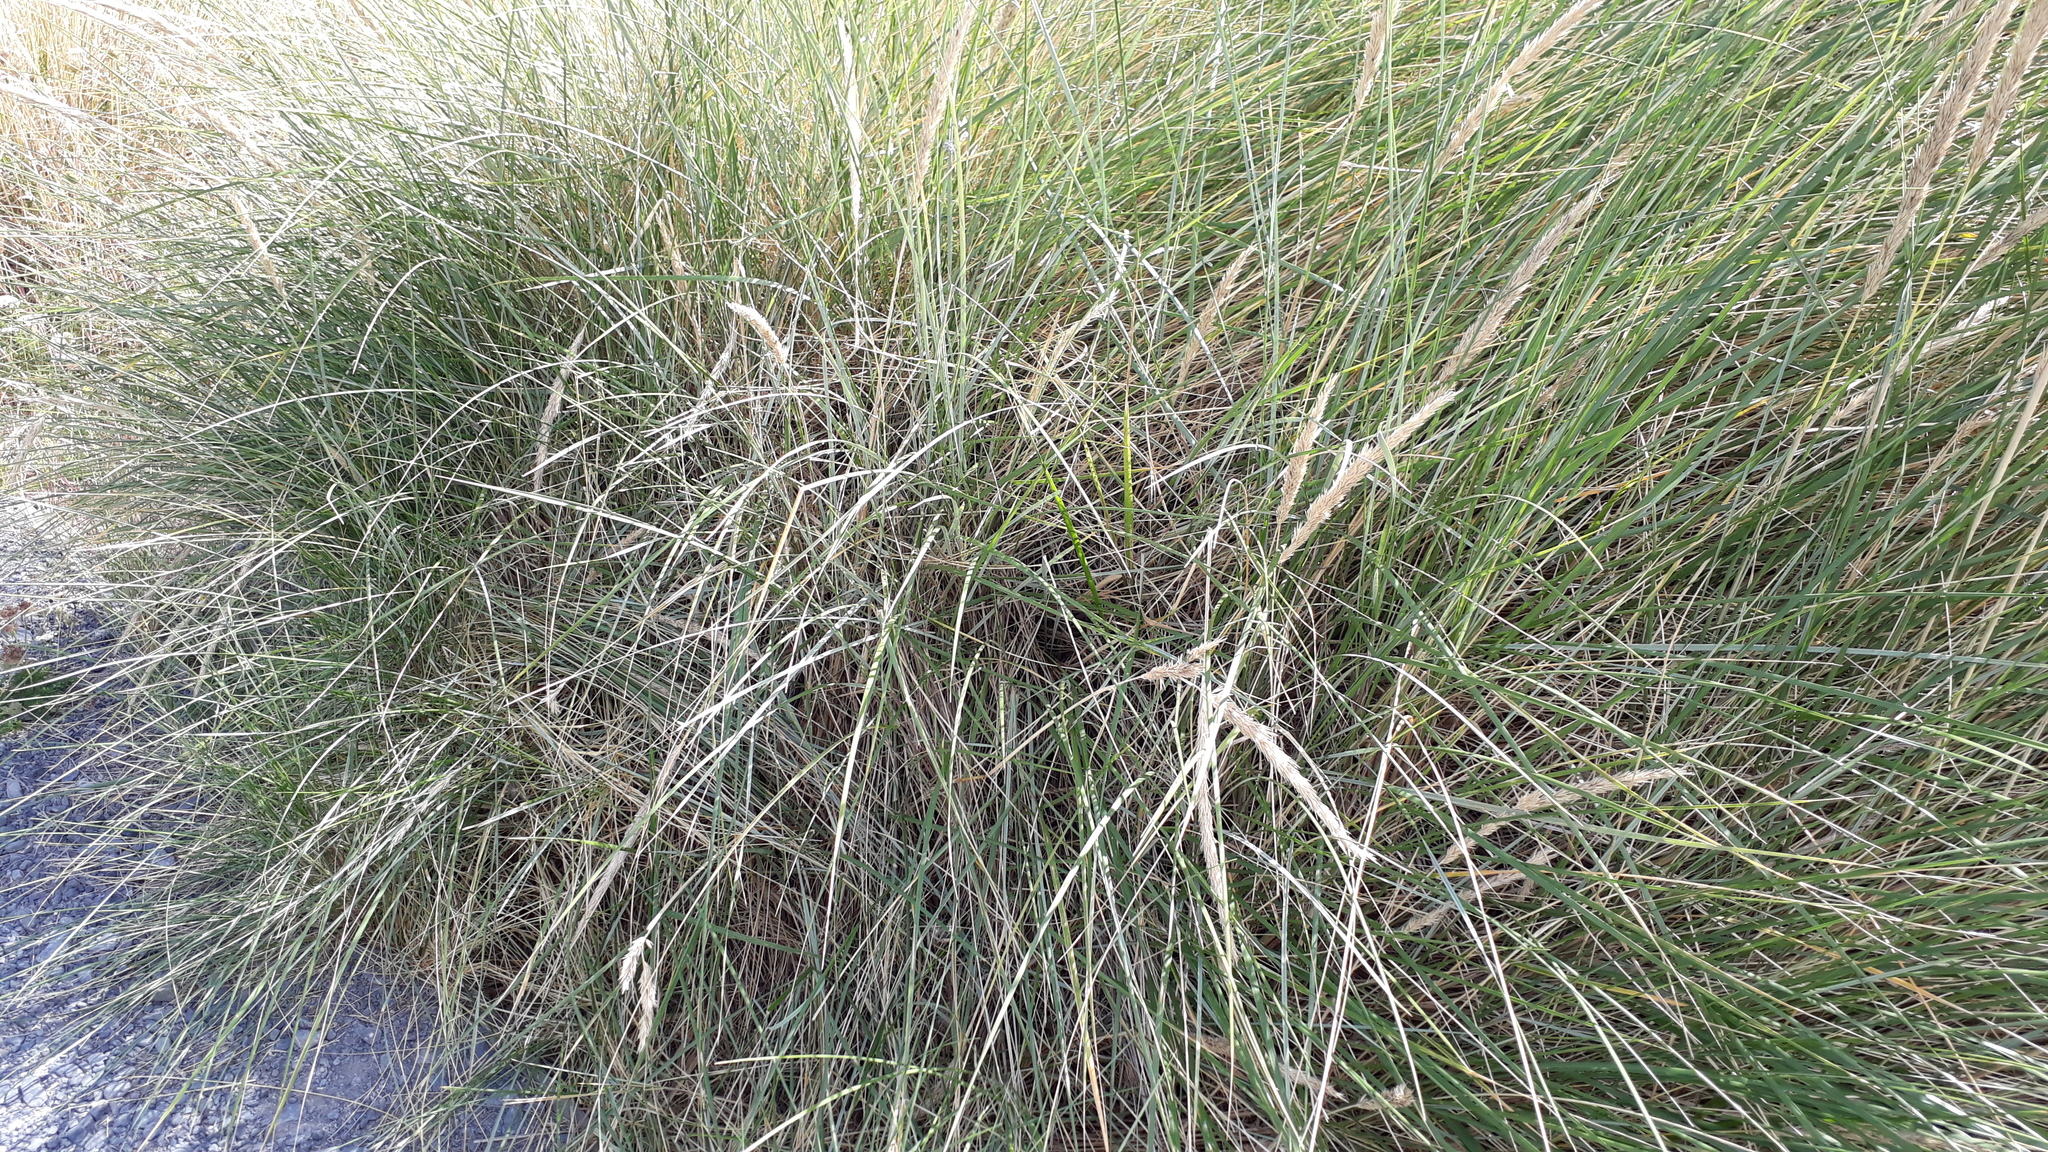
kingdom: Plantae
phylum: Tracheophyta
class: Liliopsida
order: Poales
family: Poaceae
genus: Calamagrostis
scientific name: Calamagrostis arenaria
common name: European beachgrass
